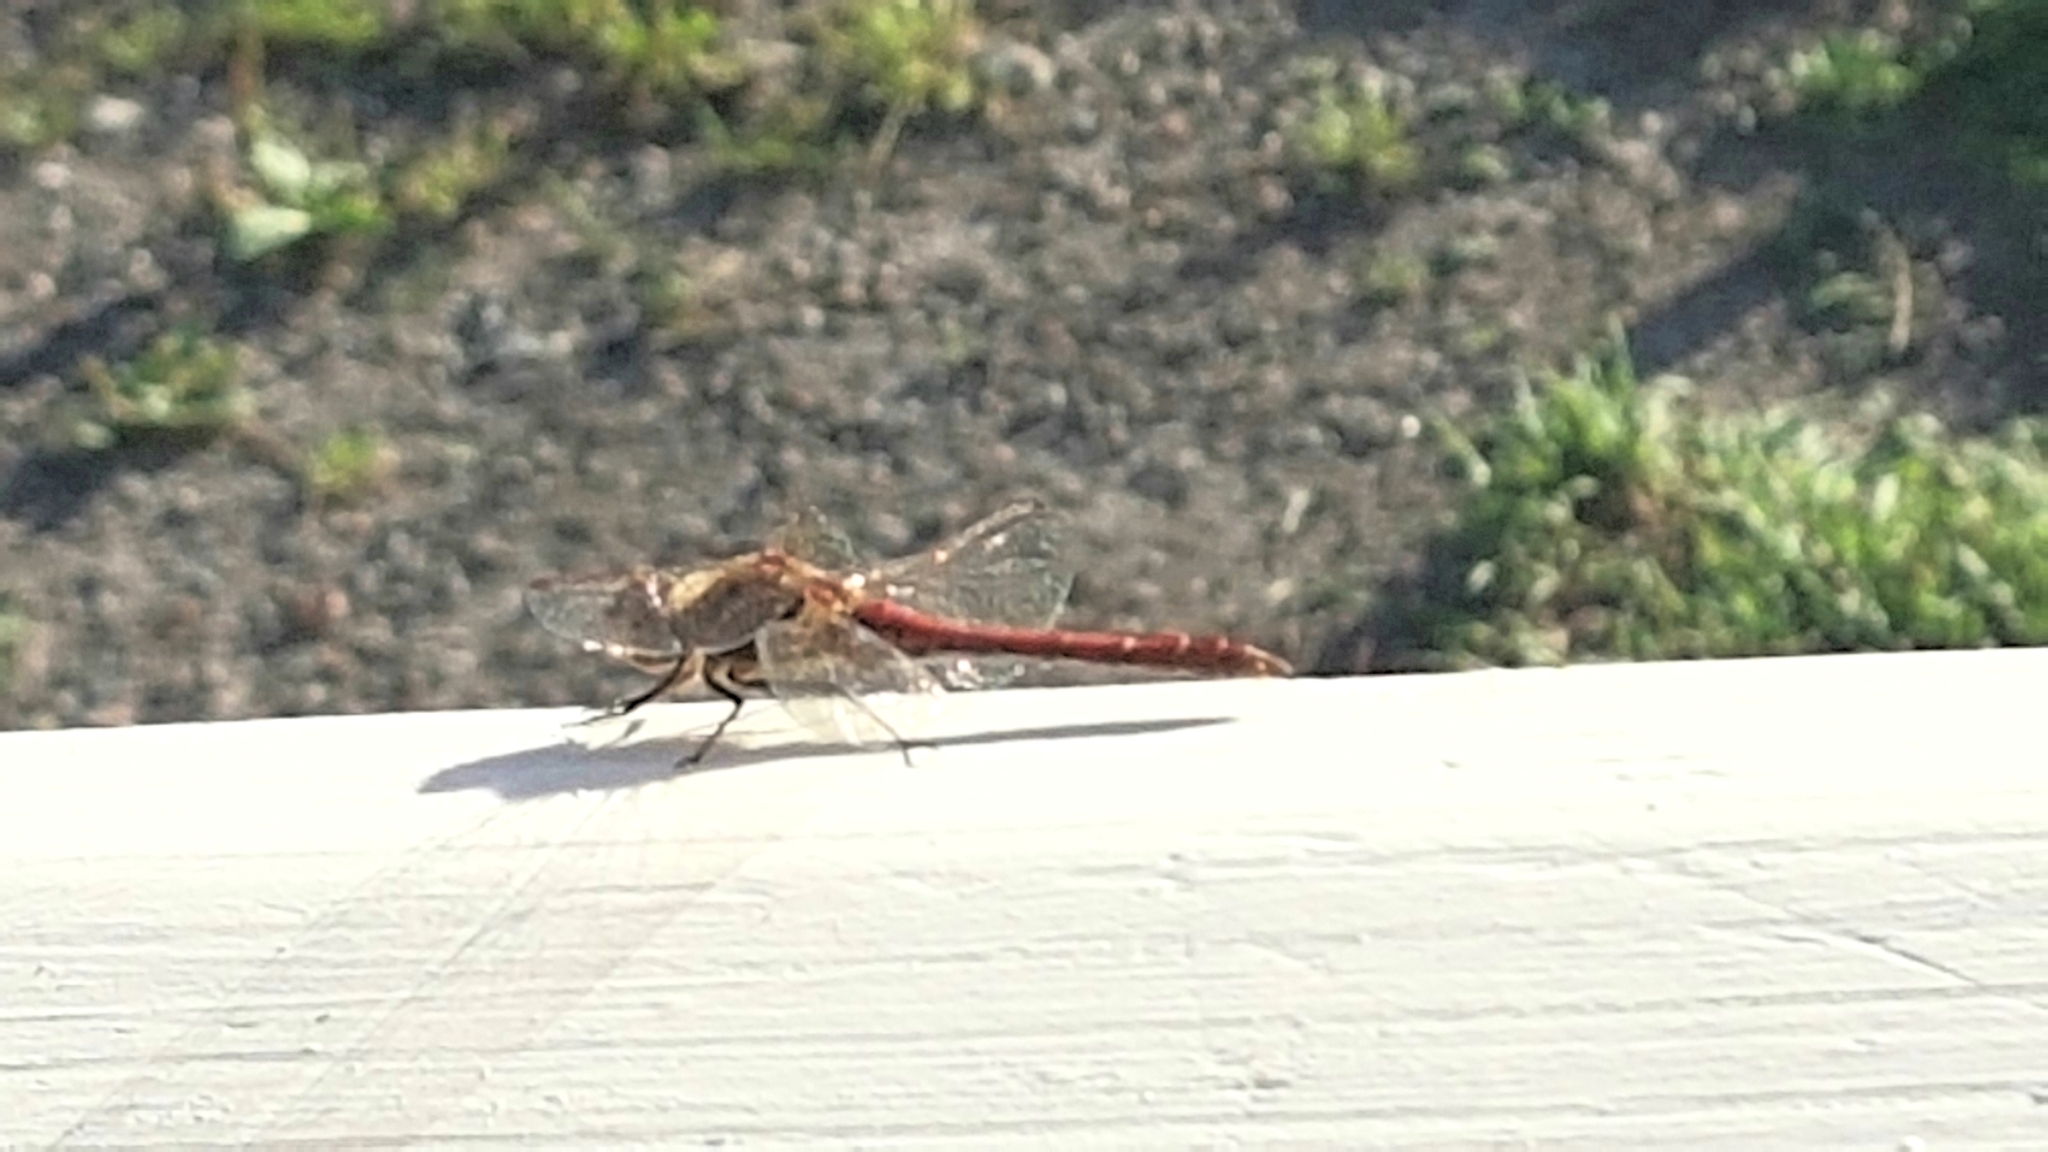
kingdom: Animalia
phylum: Arthropoda
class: Insecta
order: Odonata
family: Libellulidae
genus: Sympetrum
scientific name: Sympetrum vulgatum
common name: Vagrant darter
